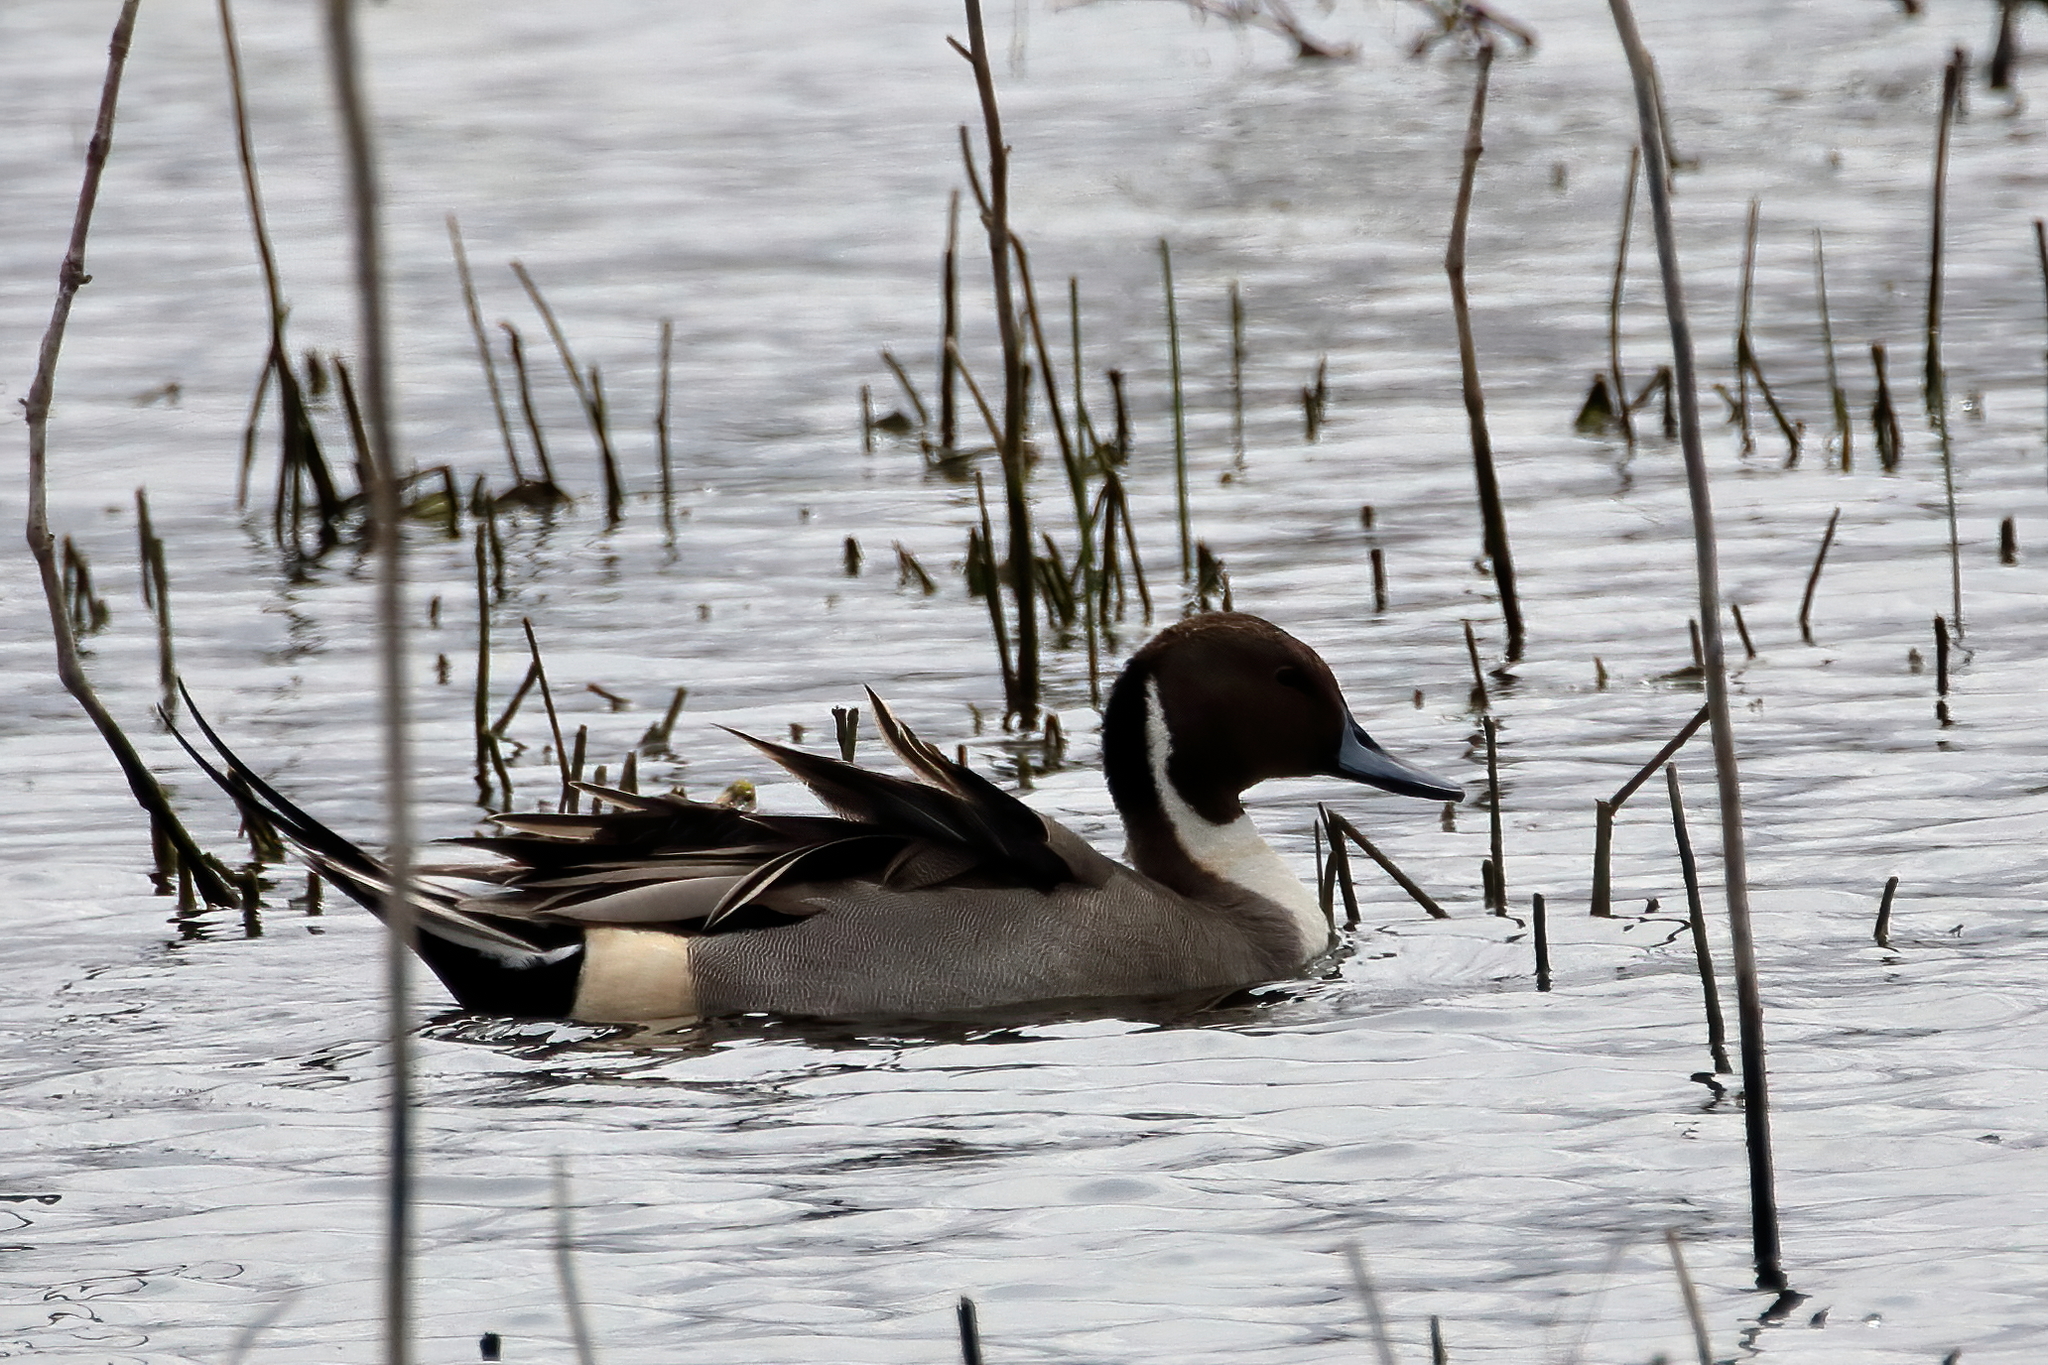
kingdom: Animalia
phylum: Chordata
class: Aves
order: Anseriformes
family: Anatidae
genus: Anas
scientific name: Anas acuta
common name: Northern pintail
